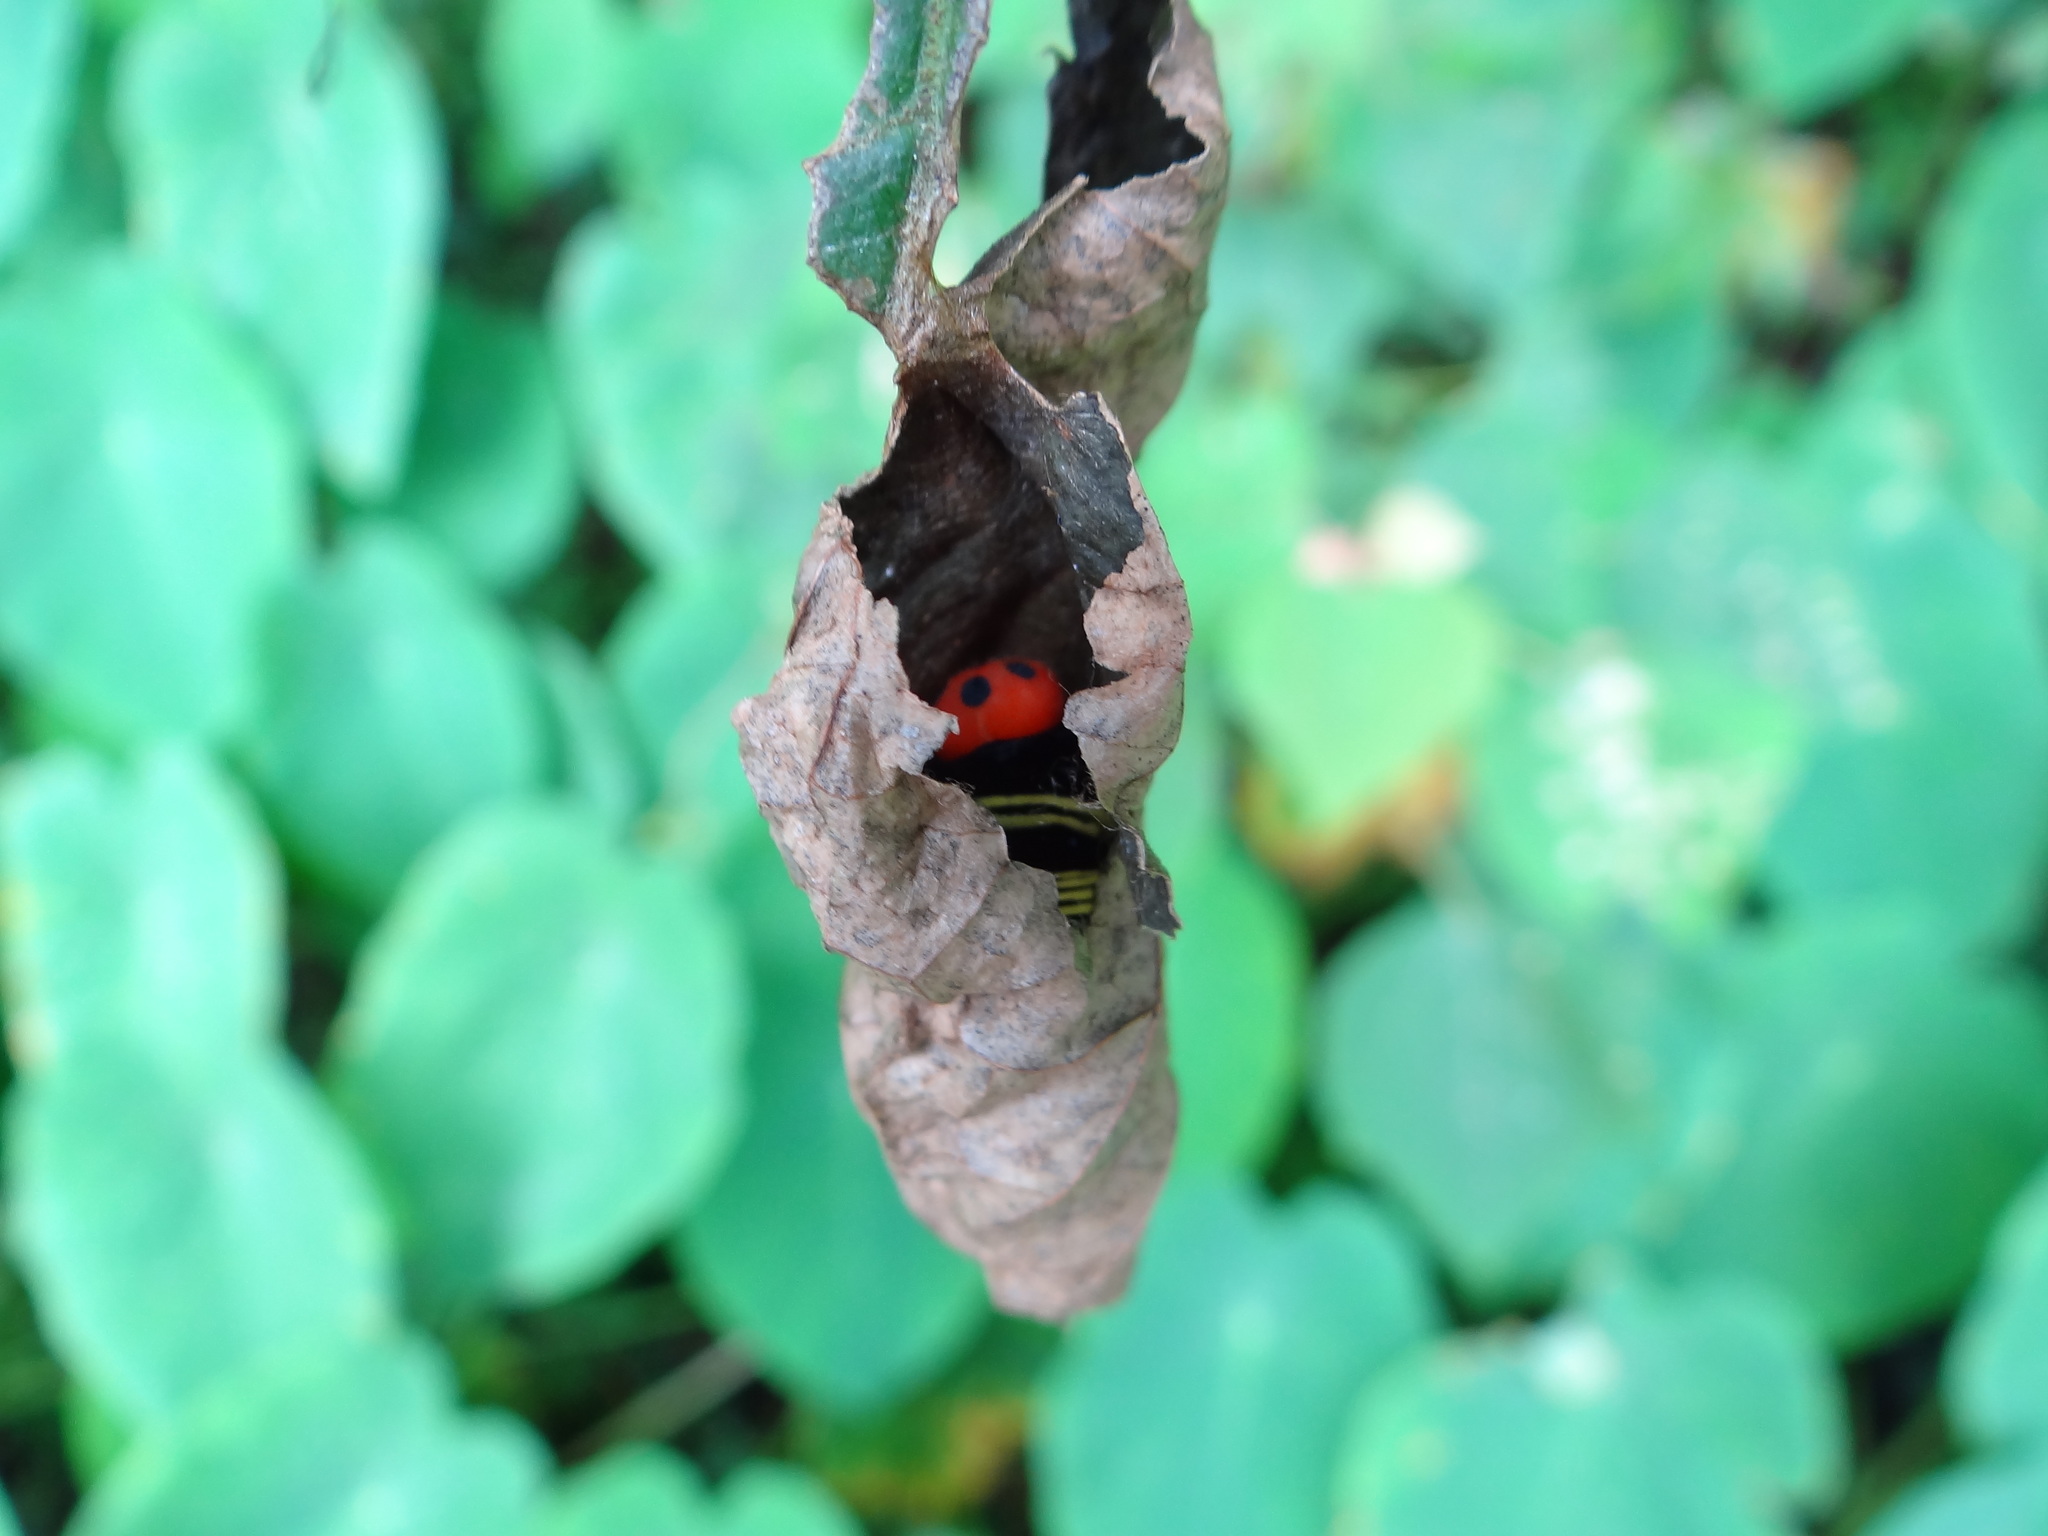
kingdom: Animalia
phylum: Arthropoda
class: Insecta
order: Lepidoptera
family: Hesperiidae
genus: Choaspes
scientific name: Choaspes benjaminii
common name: Indian awlking
